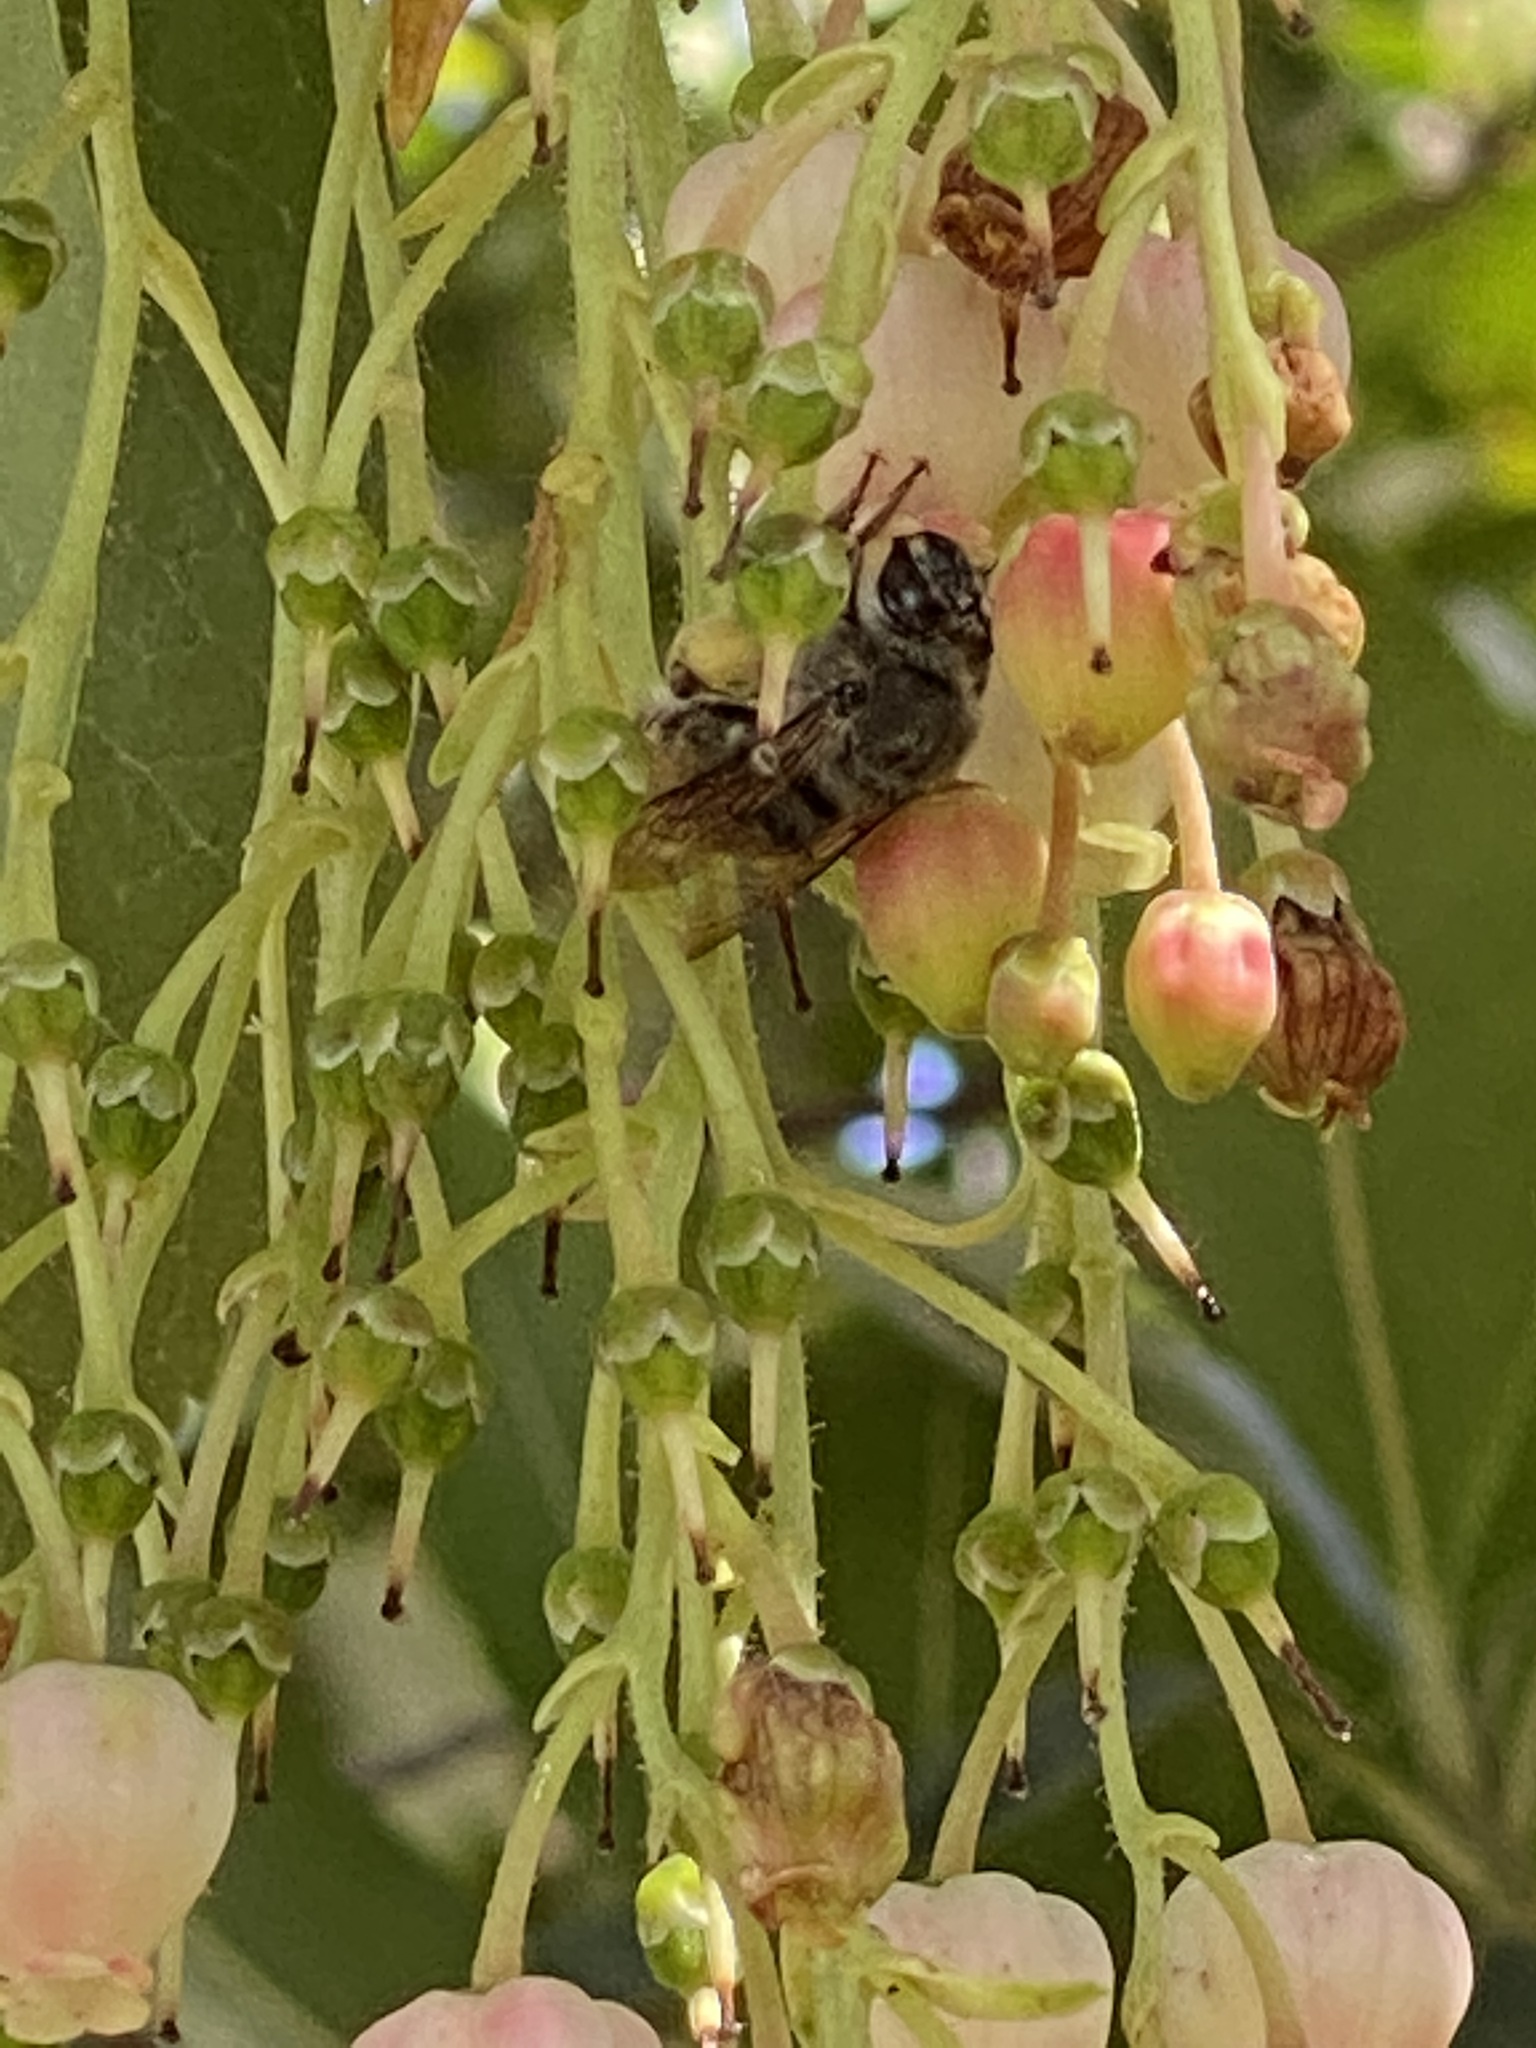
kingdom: Animalia
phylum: Arthropoda
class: Insecta
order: Hymenoptera
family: Apidae
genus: Habropoda
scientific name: Habropoda depressa
